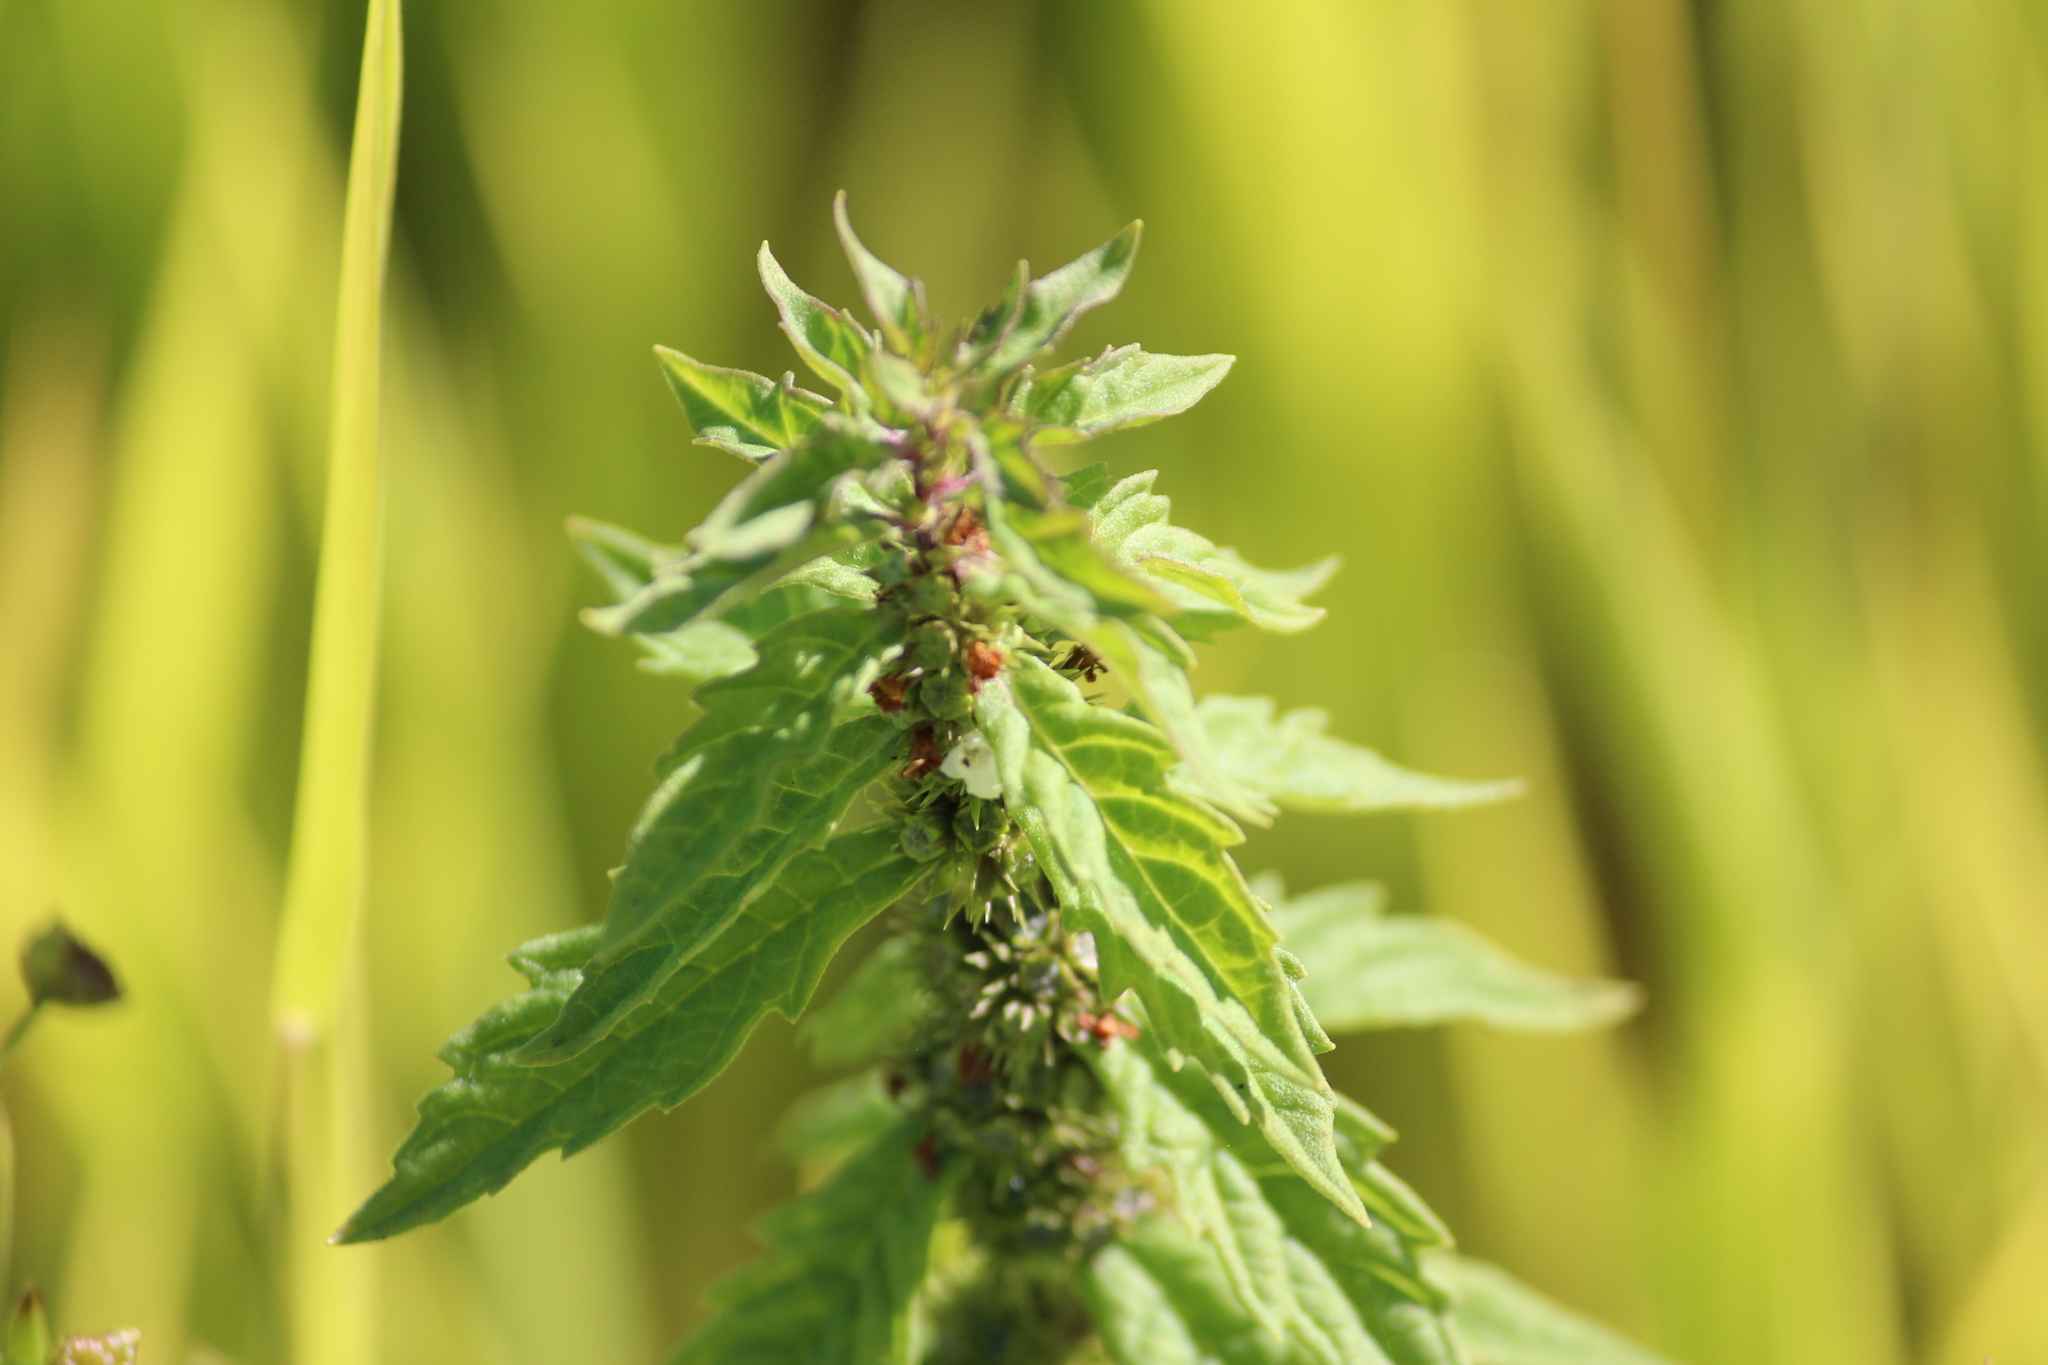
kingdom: Plantae
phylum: Tracheophyta
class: Magnoliopsida
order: Lamiales
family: Lamiaceae
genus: Lycopus
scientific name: Lycopus europaeus
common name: European bugleweed
